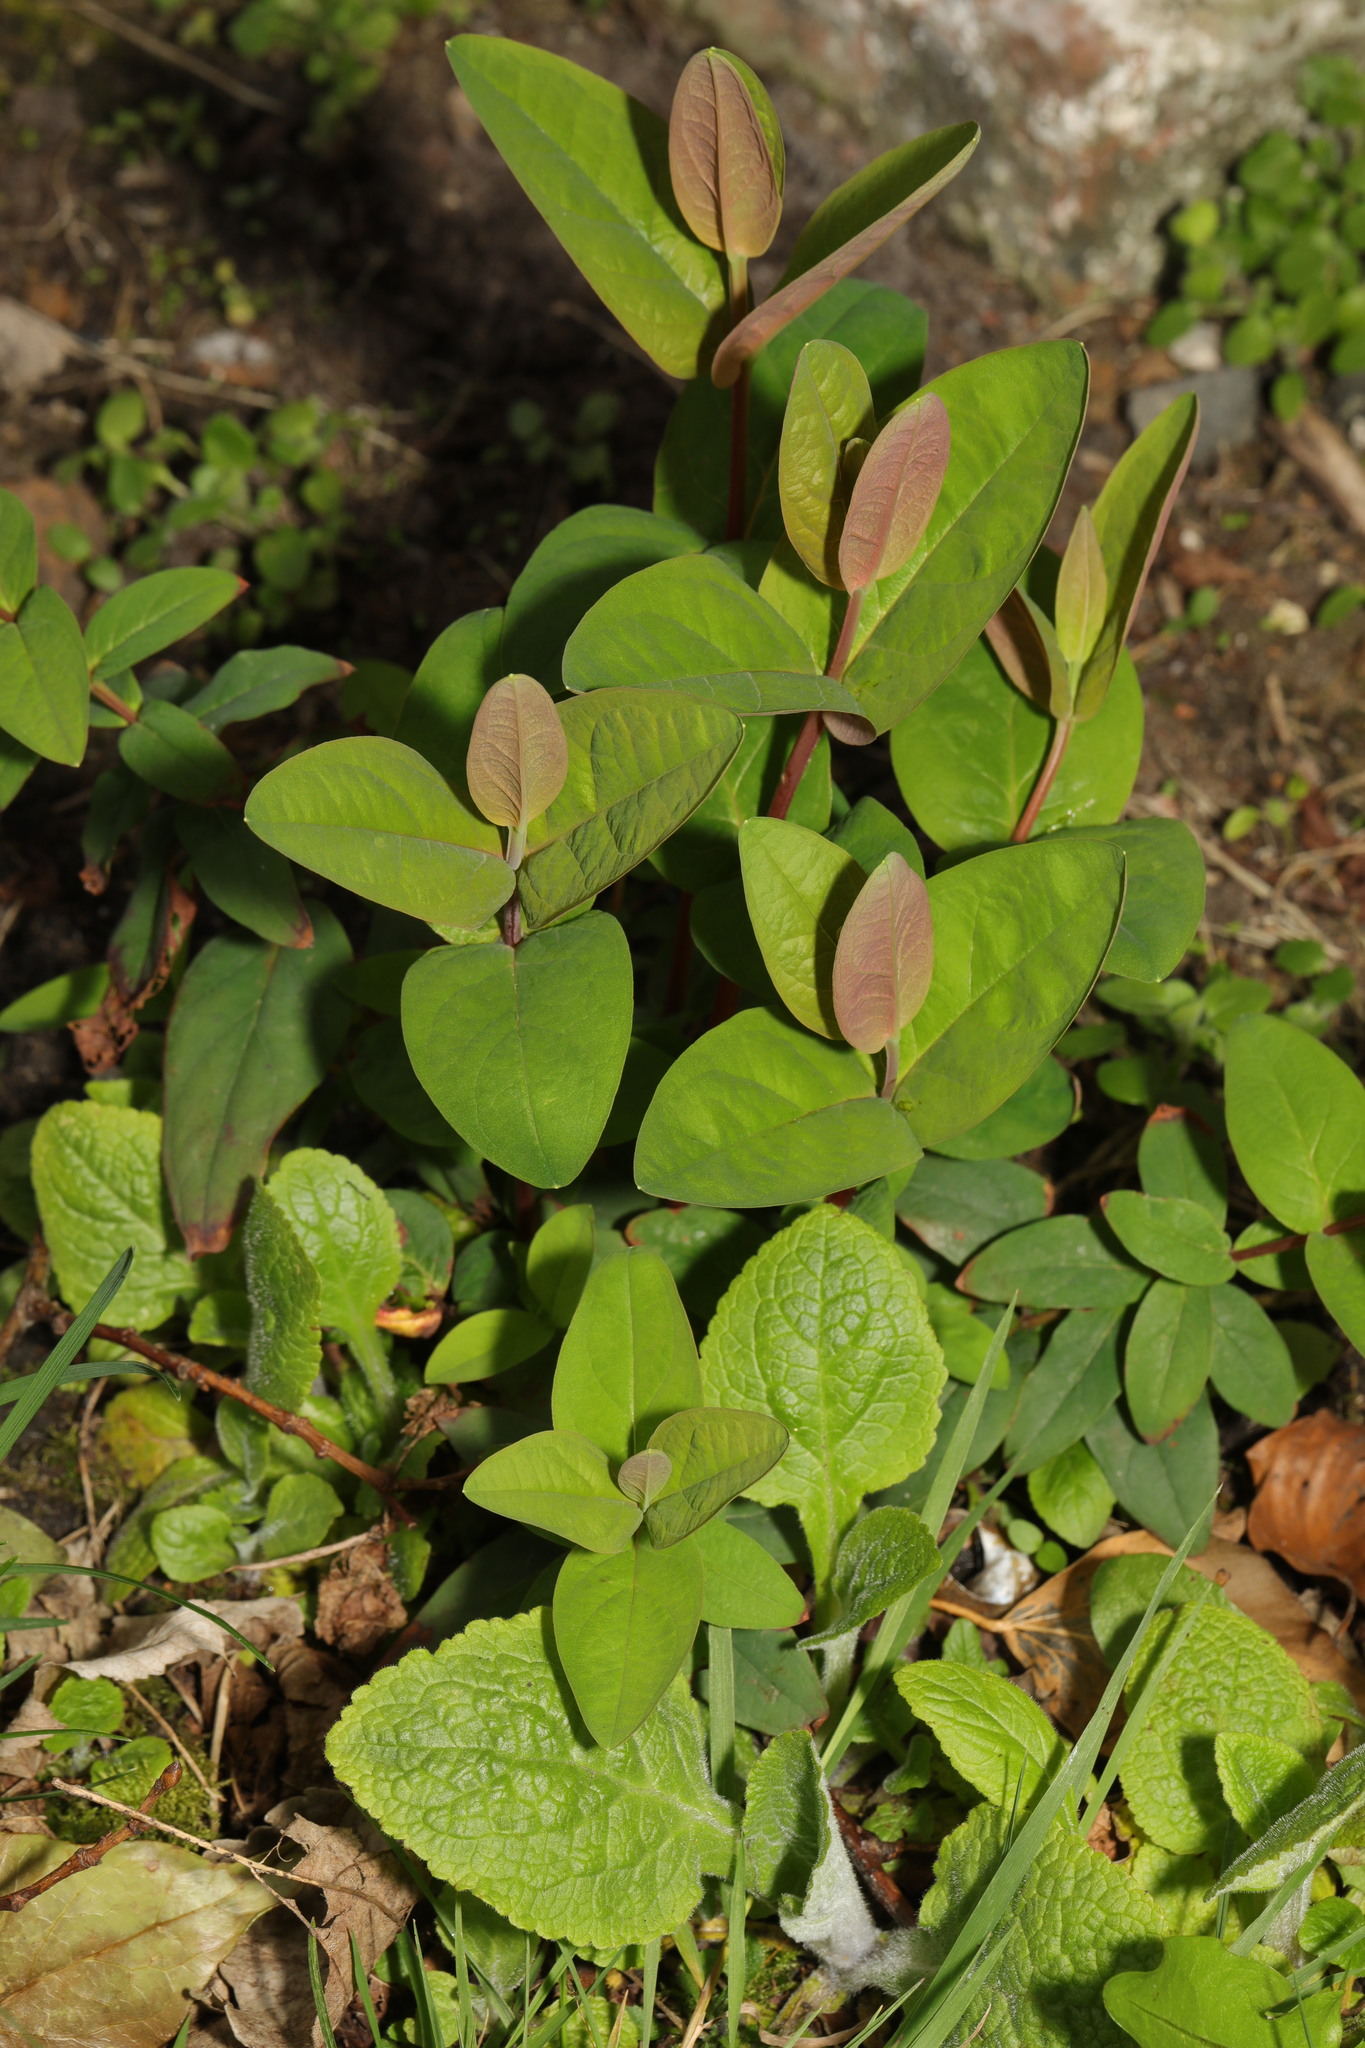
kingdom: Plantae
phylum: Tracheophyta
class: Magnoliopsida
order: Malpighiales
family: Hypericaceae
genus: Hypericum
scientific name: Hypericum androsaemum
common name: Sweet-amber
